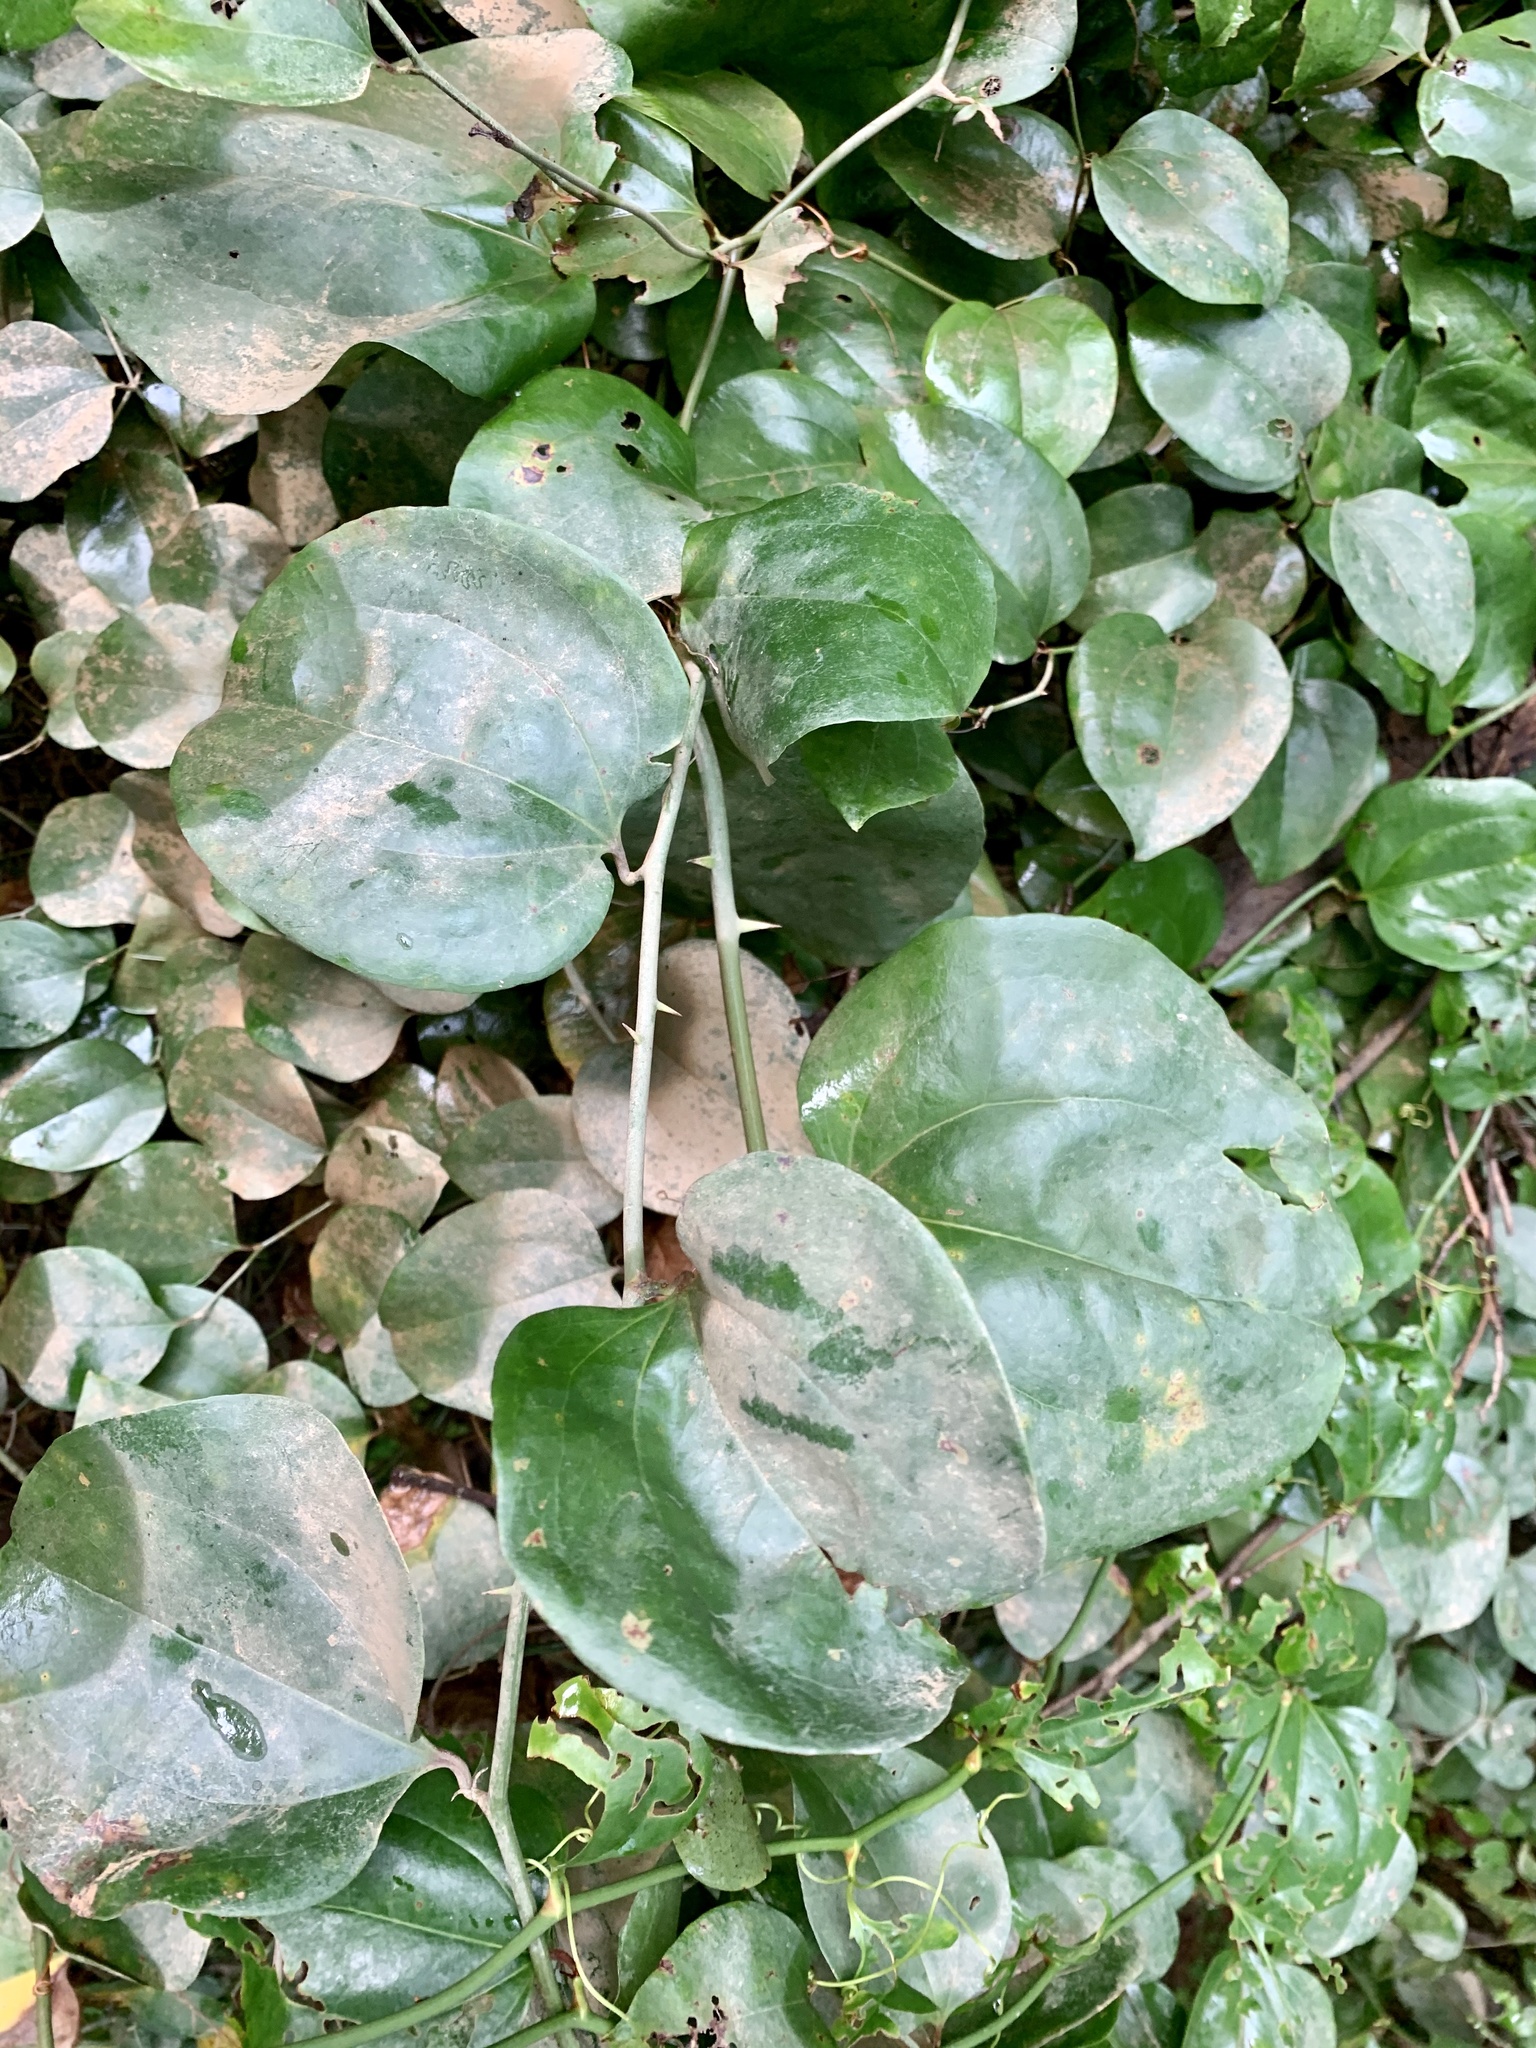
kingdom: Plantae
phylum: Tracheophyta
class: Liliopsida
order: Liliales
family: Smilacaceae
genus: Smilax
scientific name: Smilax rotundifolia
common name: Bullbriar
